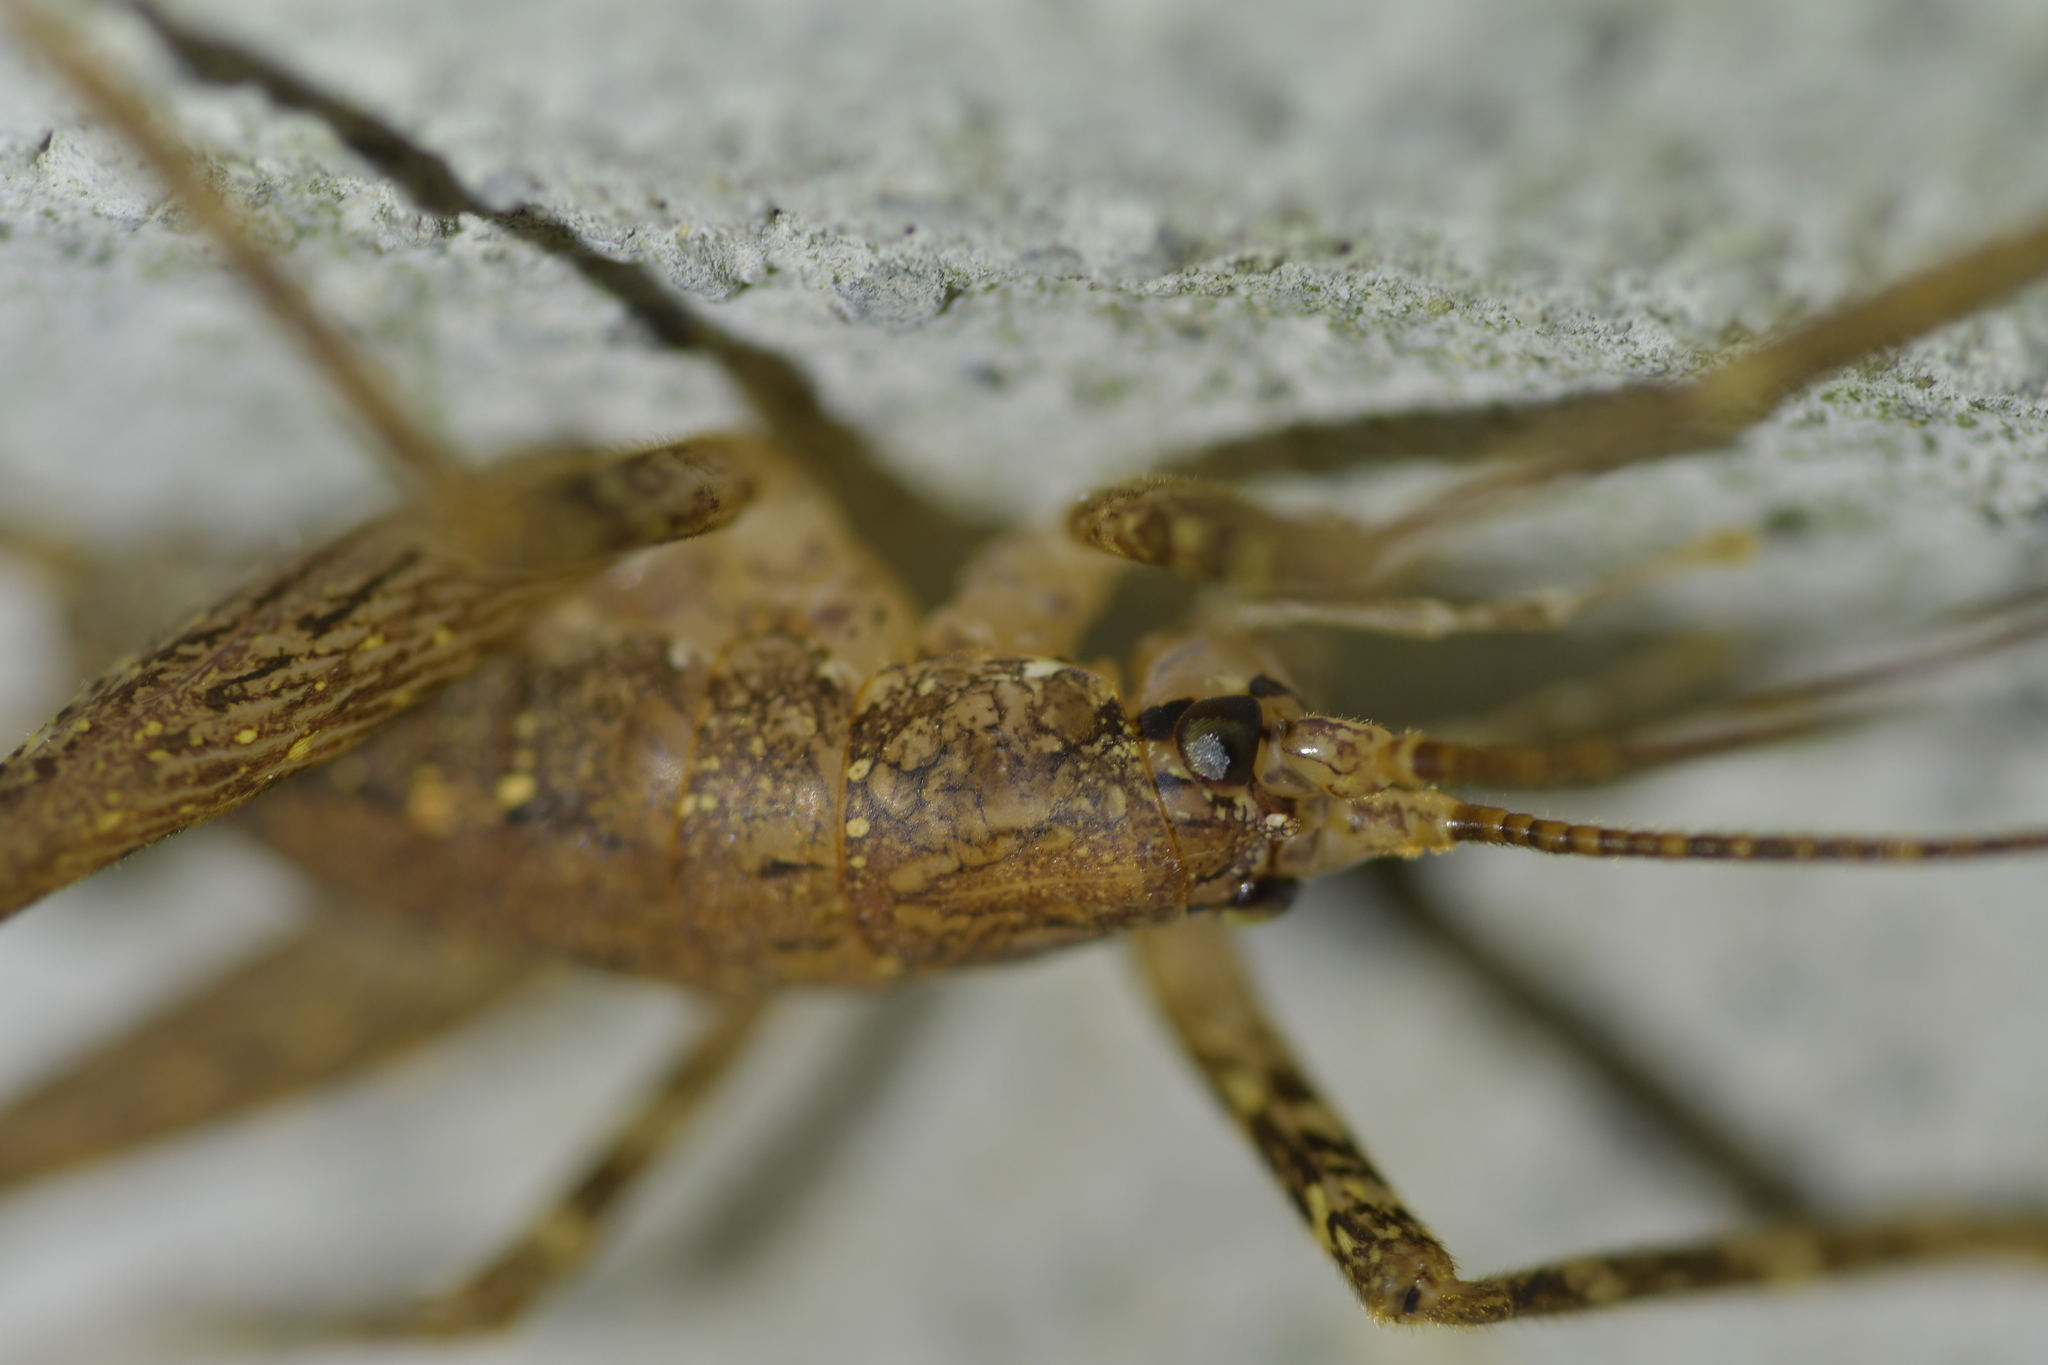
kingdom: Animalia
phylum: Arthropoda
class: Insecta
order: Orthoptera
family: Rhaphidophoridae
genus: Isoplectron
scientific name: Isoplectron armatum
